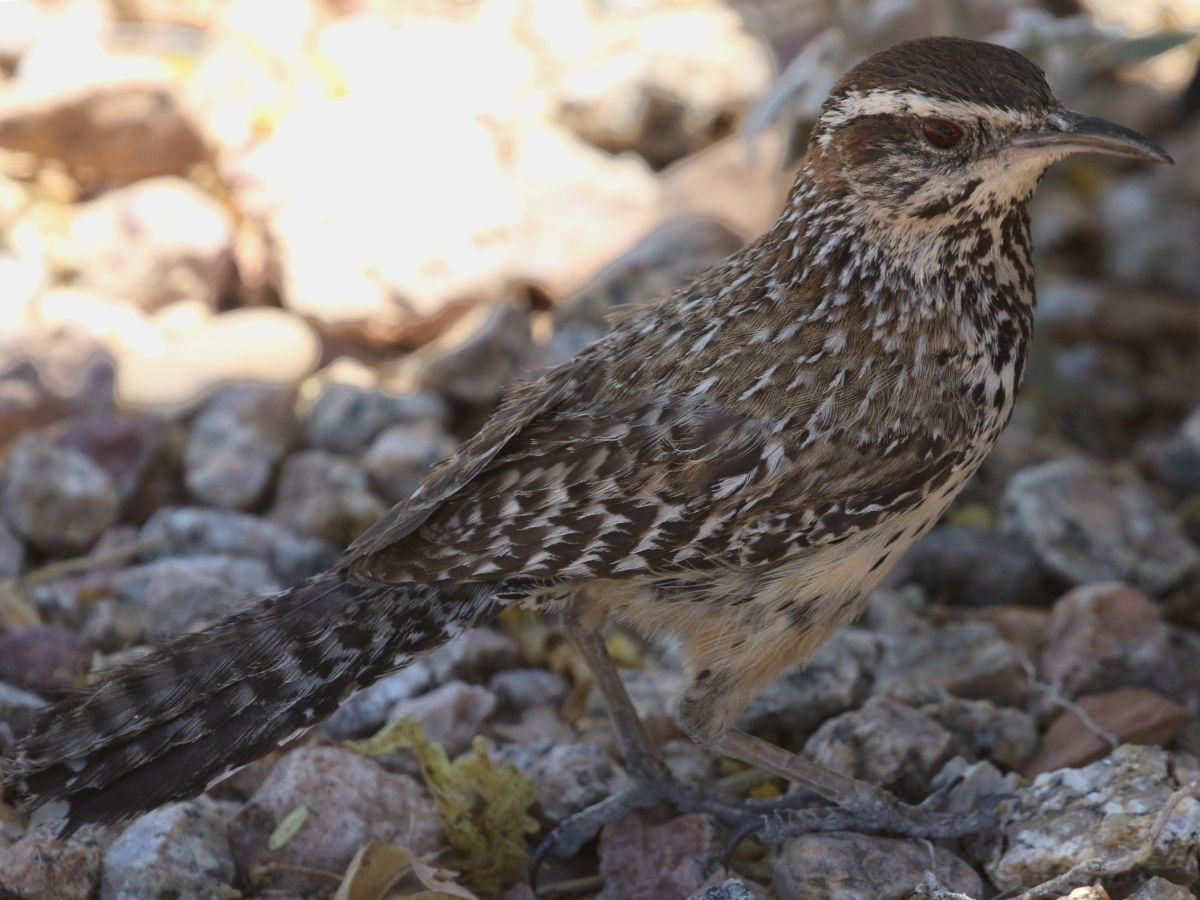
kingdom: Animalia
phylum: Chordata
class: Aves
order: Passeriformes
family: Troglodytidae
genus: Campylorhynchus
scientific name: Campylorhynchus brunneicapillus
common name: Cactus wren
